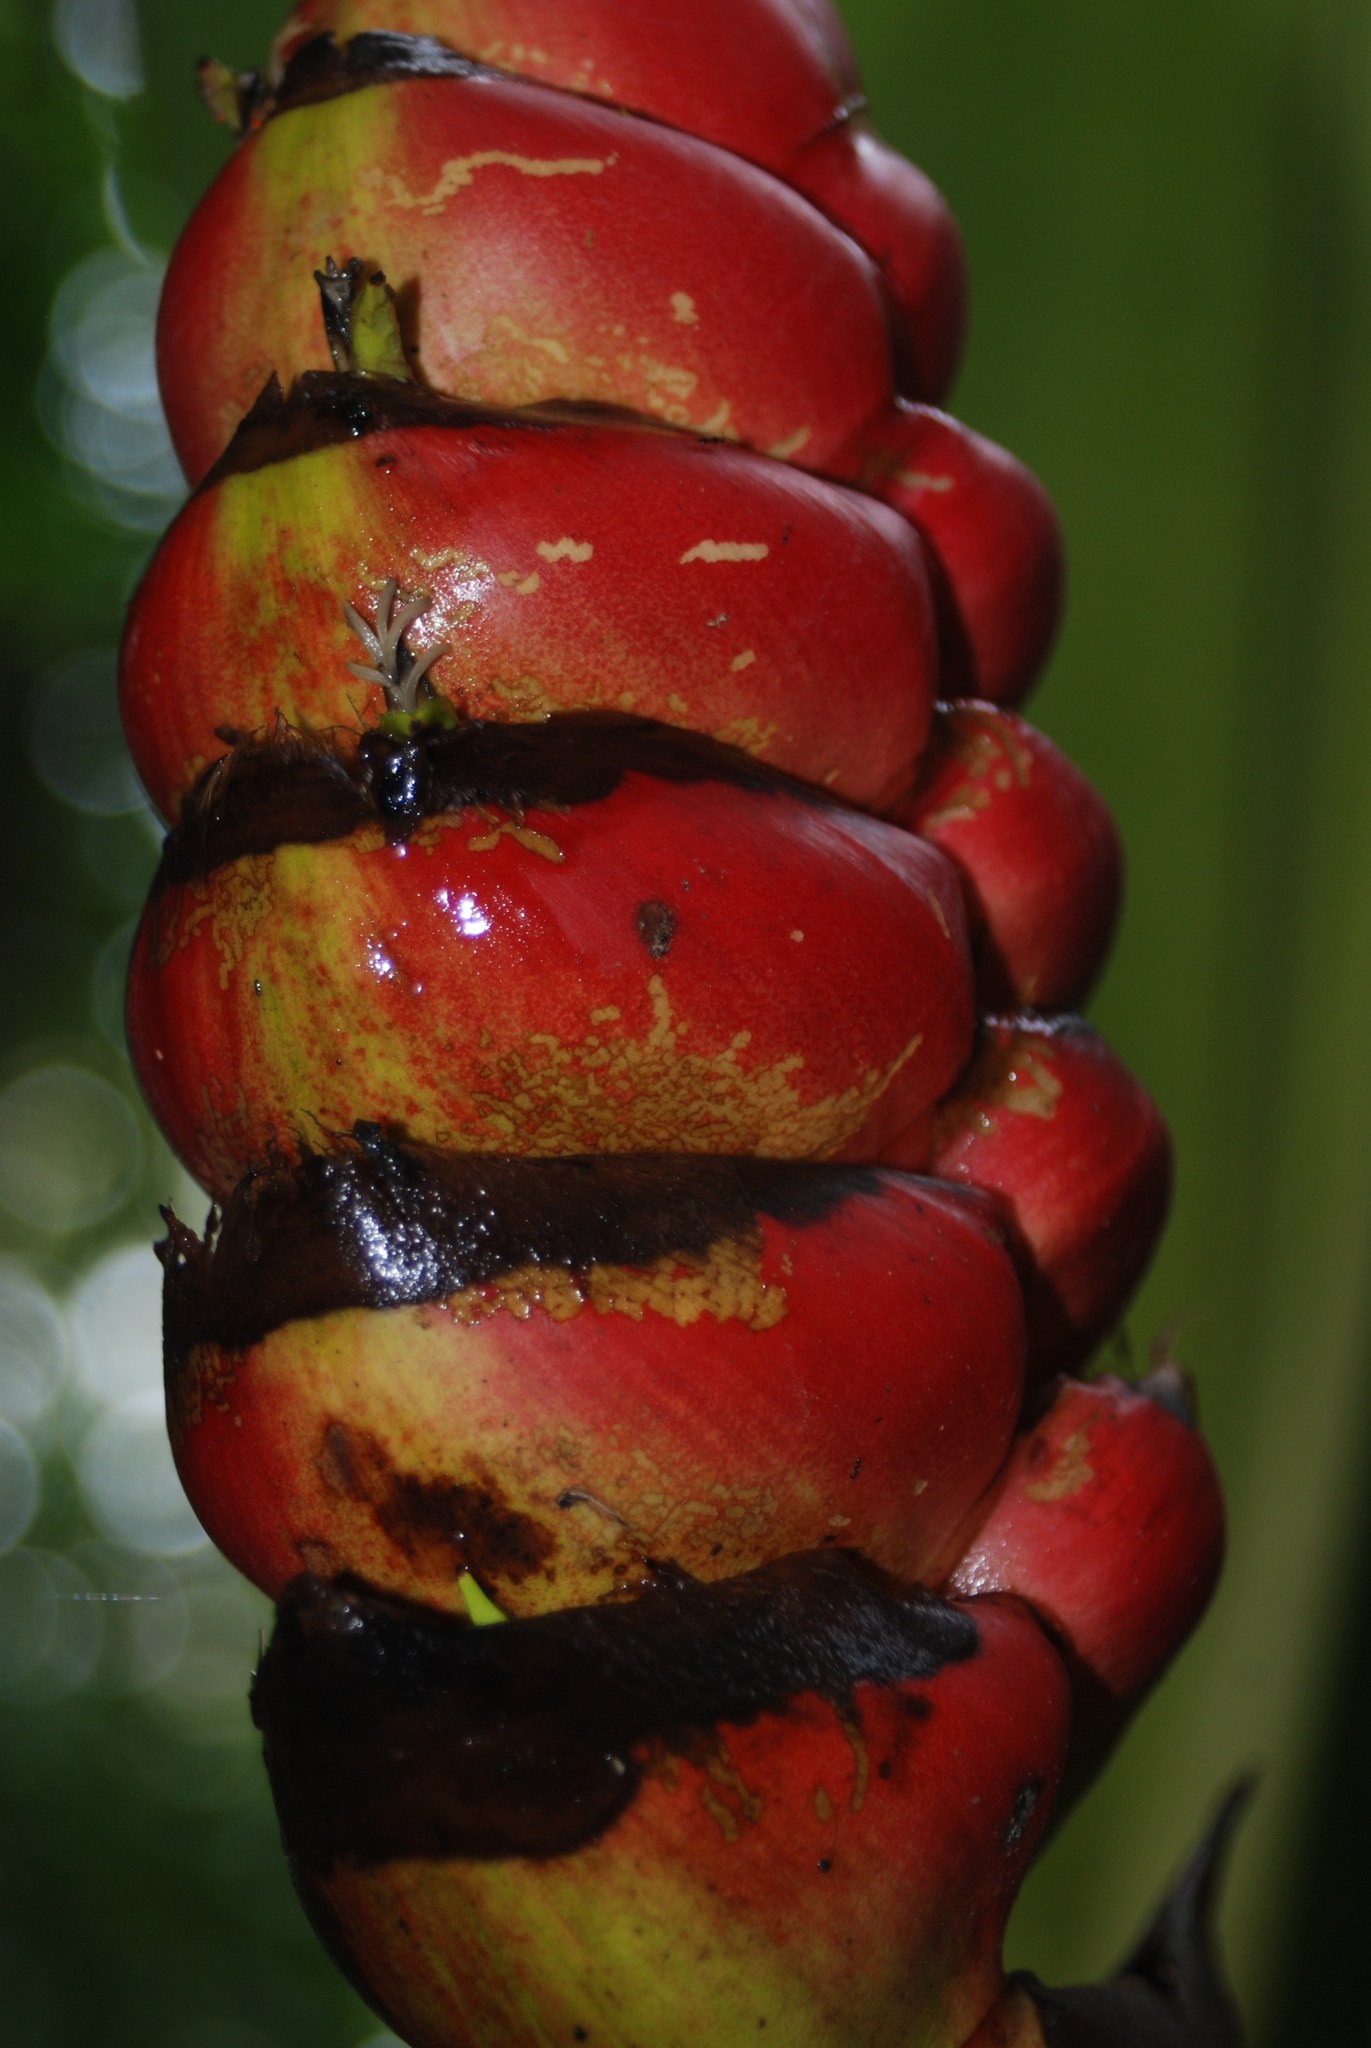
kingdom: Plantae
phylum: Tracheophyta
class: Liliopsida
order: Zingiberales
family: Heliconiaceae
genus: Heliconia
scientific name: Heliconia imbricata
